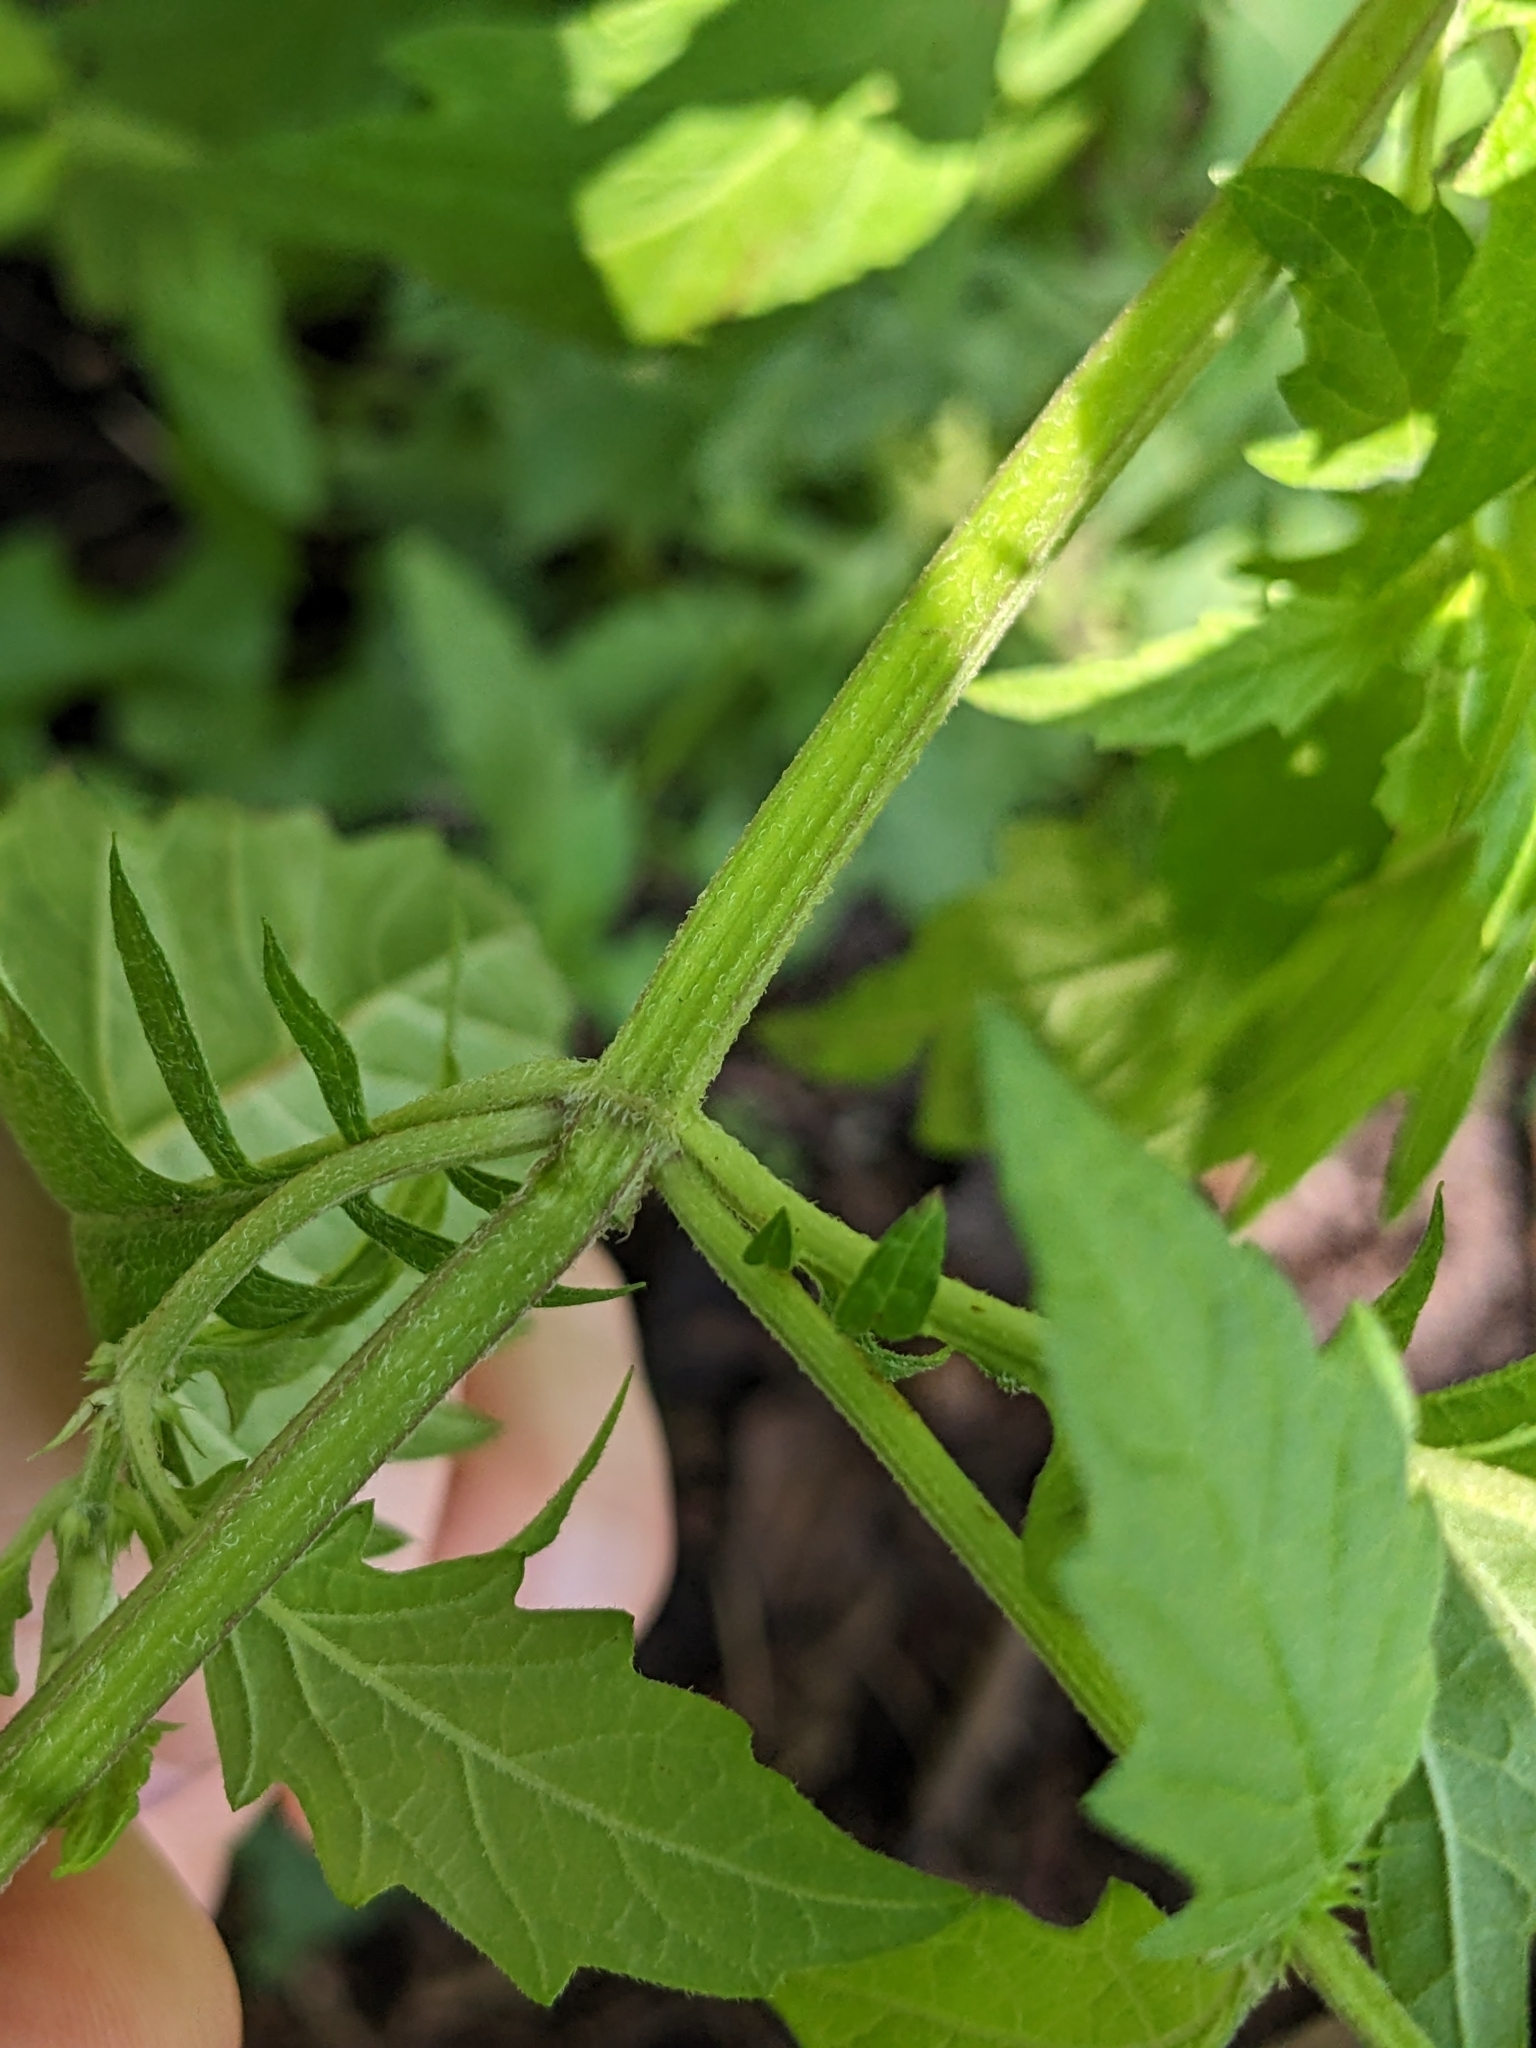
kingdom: Plantae
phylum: Tracheophyta
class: Magnoliopsida
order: Lamiales
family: Lamiaceae
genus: Lycopus
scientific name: Lycopus europaeus
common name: European bugleweed
